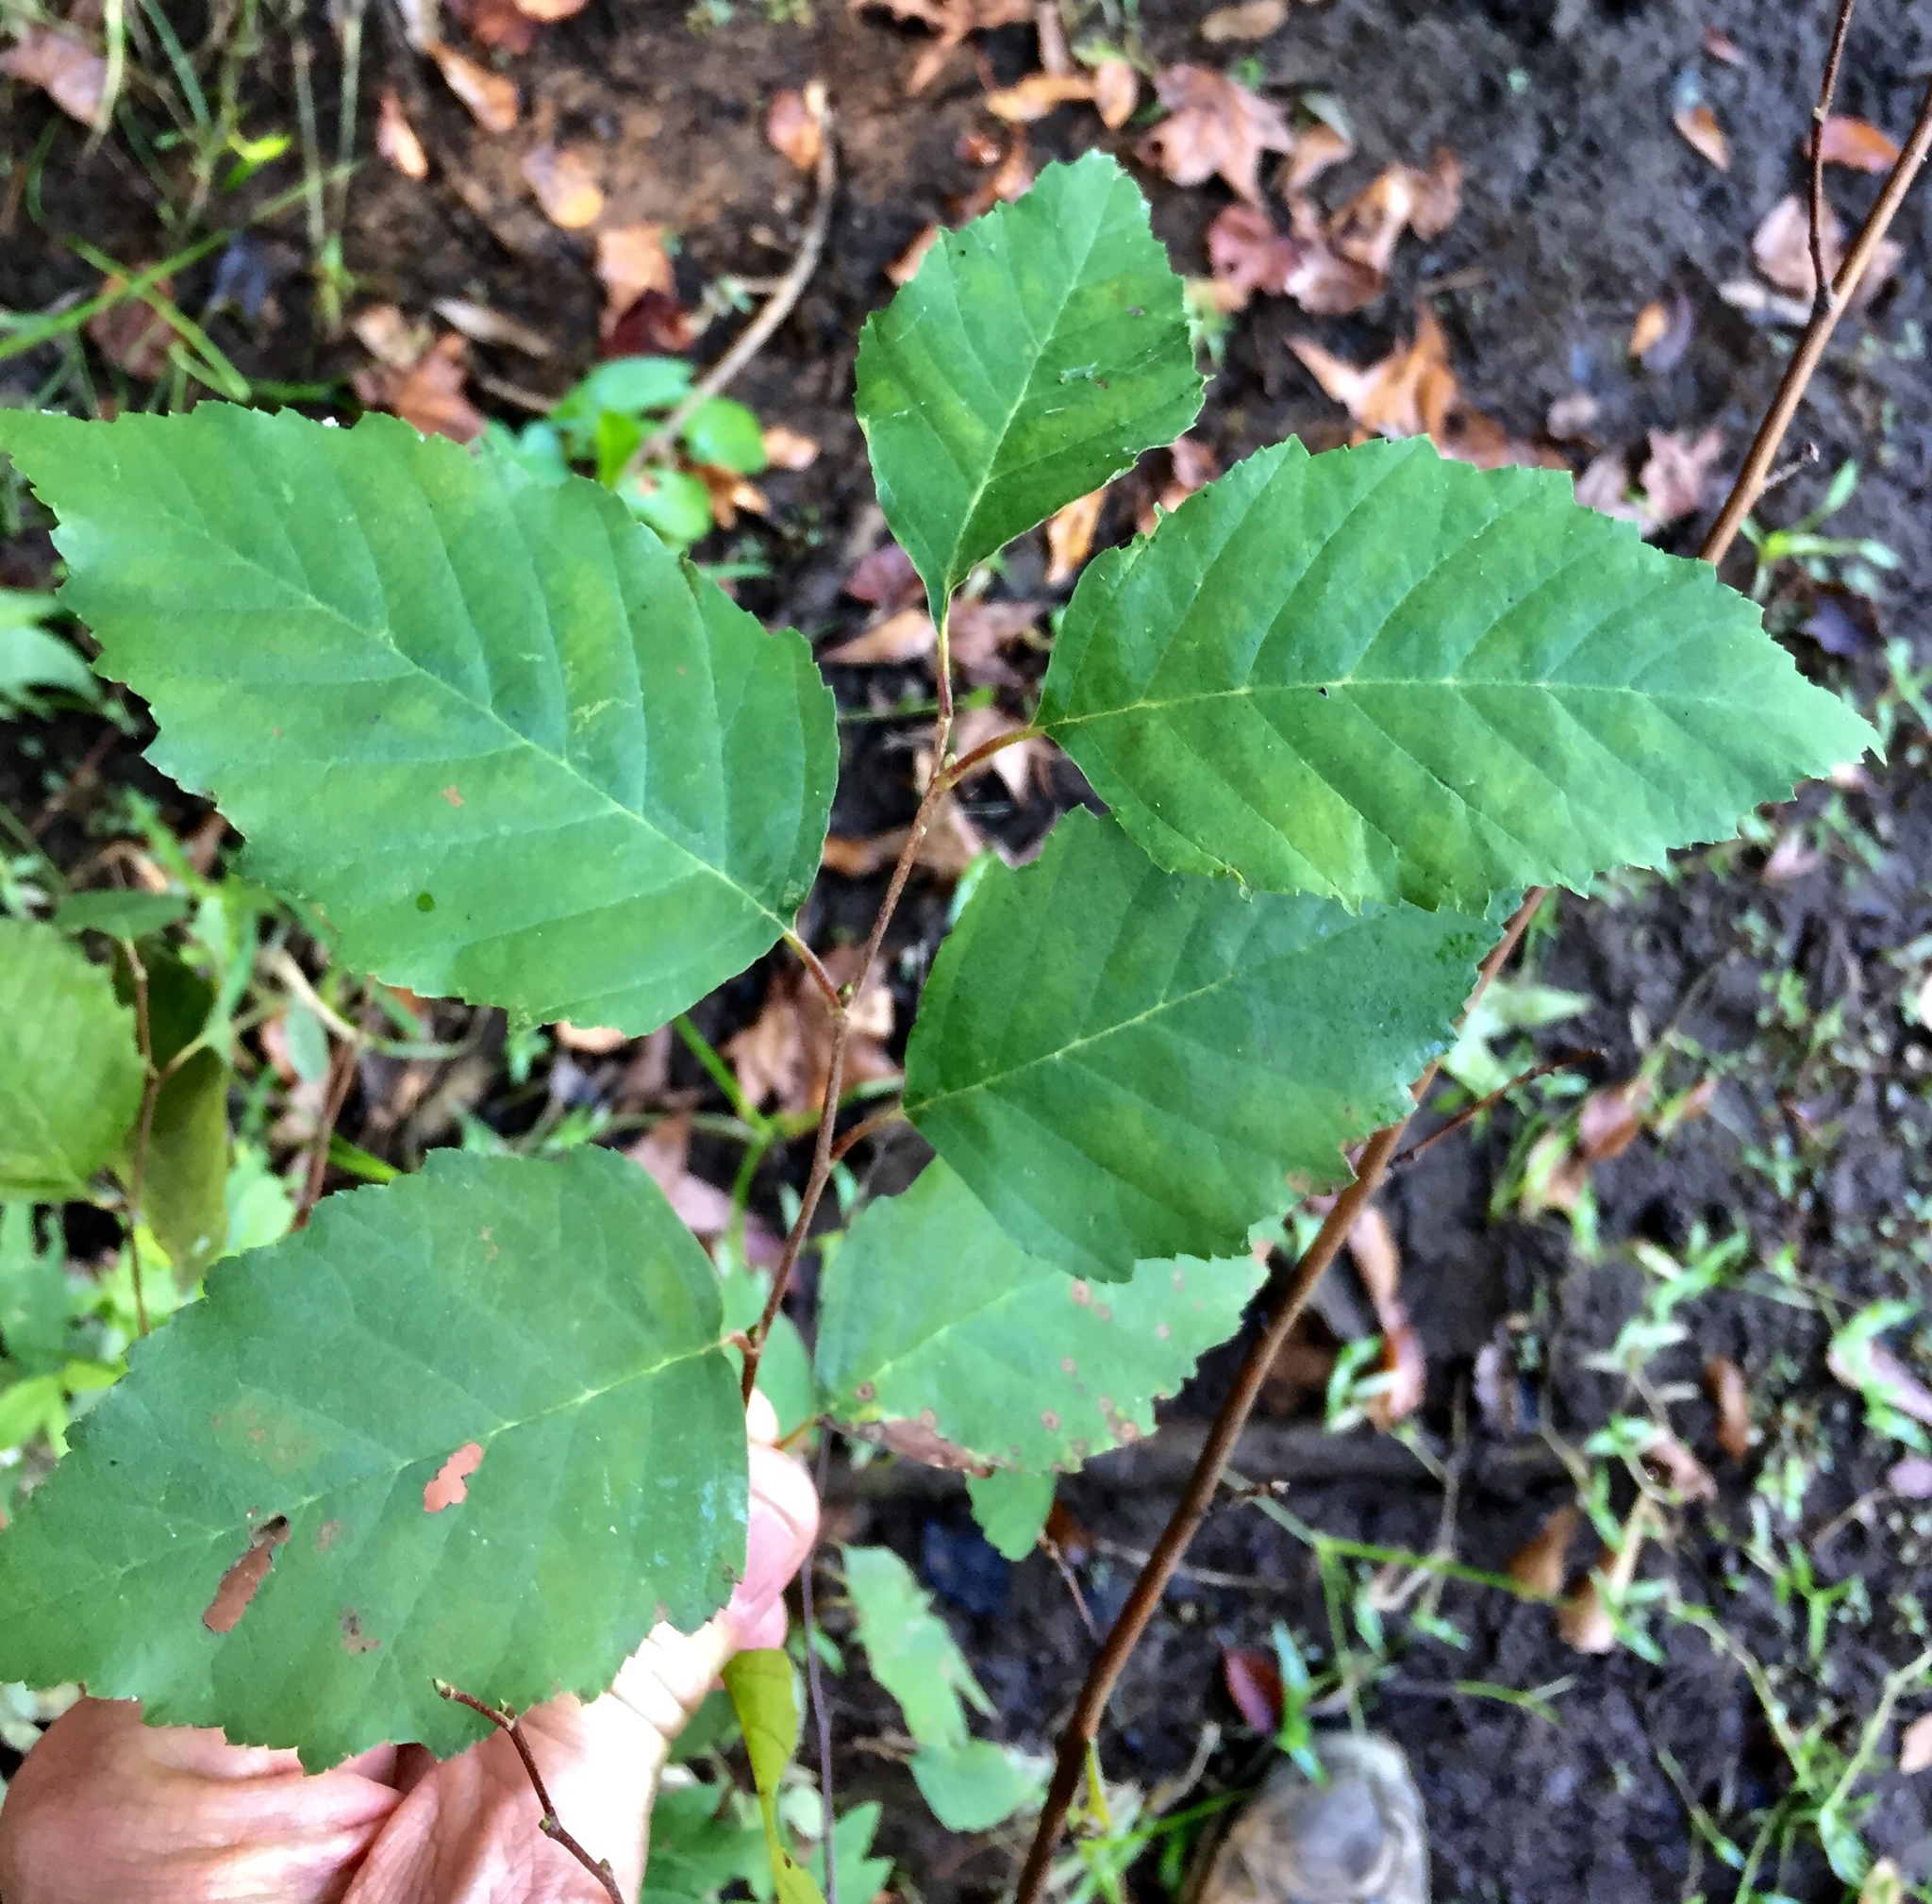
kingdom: Plantae
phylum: Tracheophyta
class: Magnoliopsida
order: Fagales
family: Betulaceae
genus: Betula
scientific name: Betula nigra
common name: Black birch
